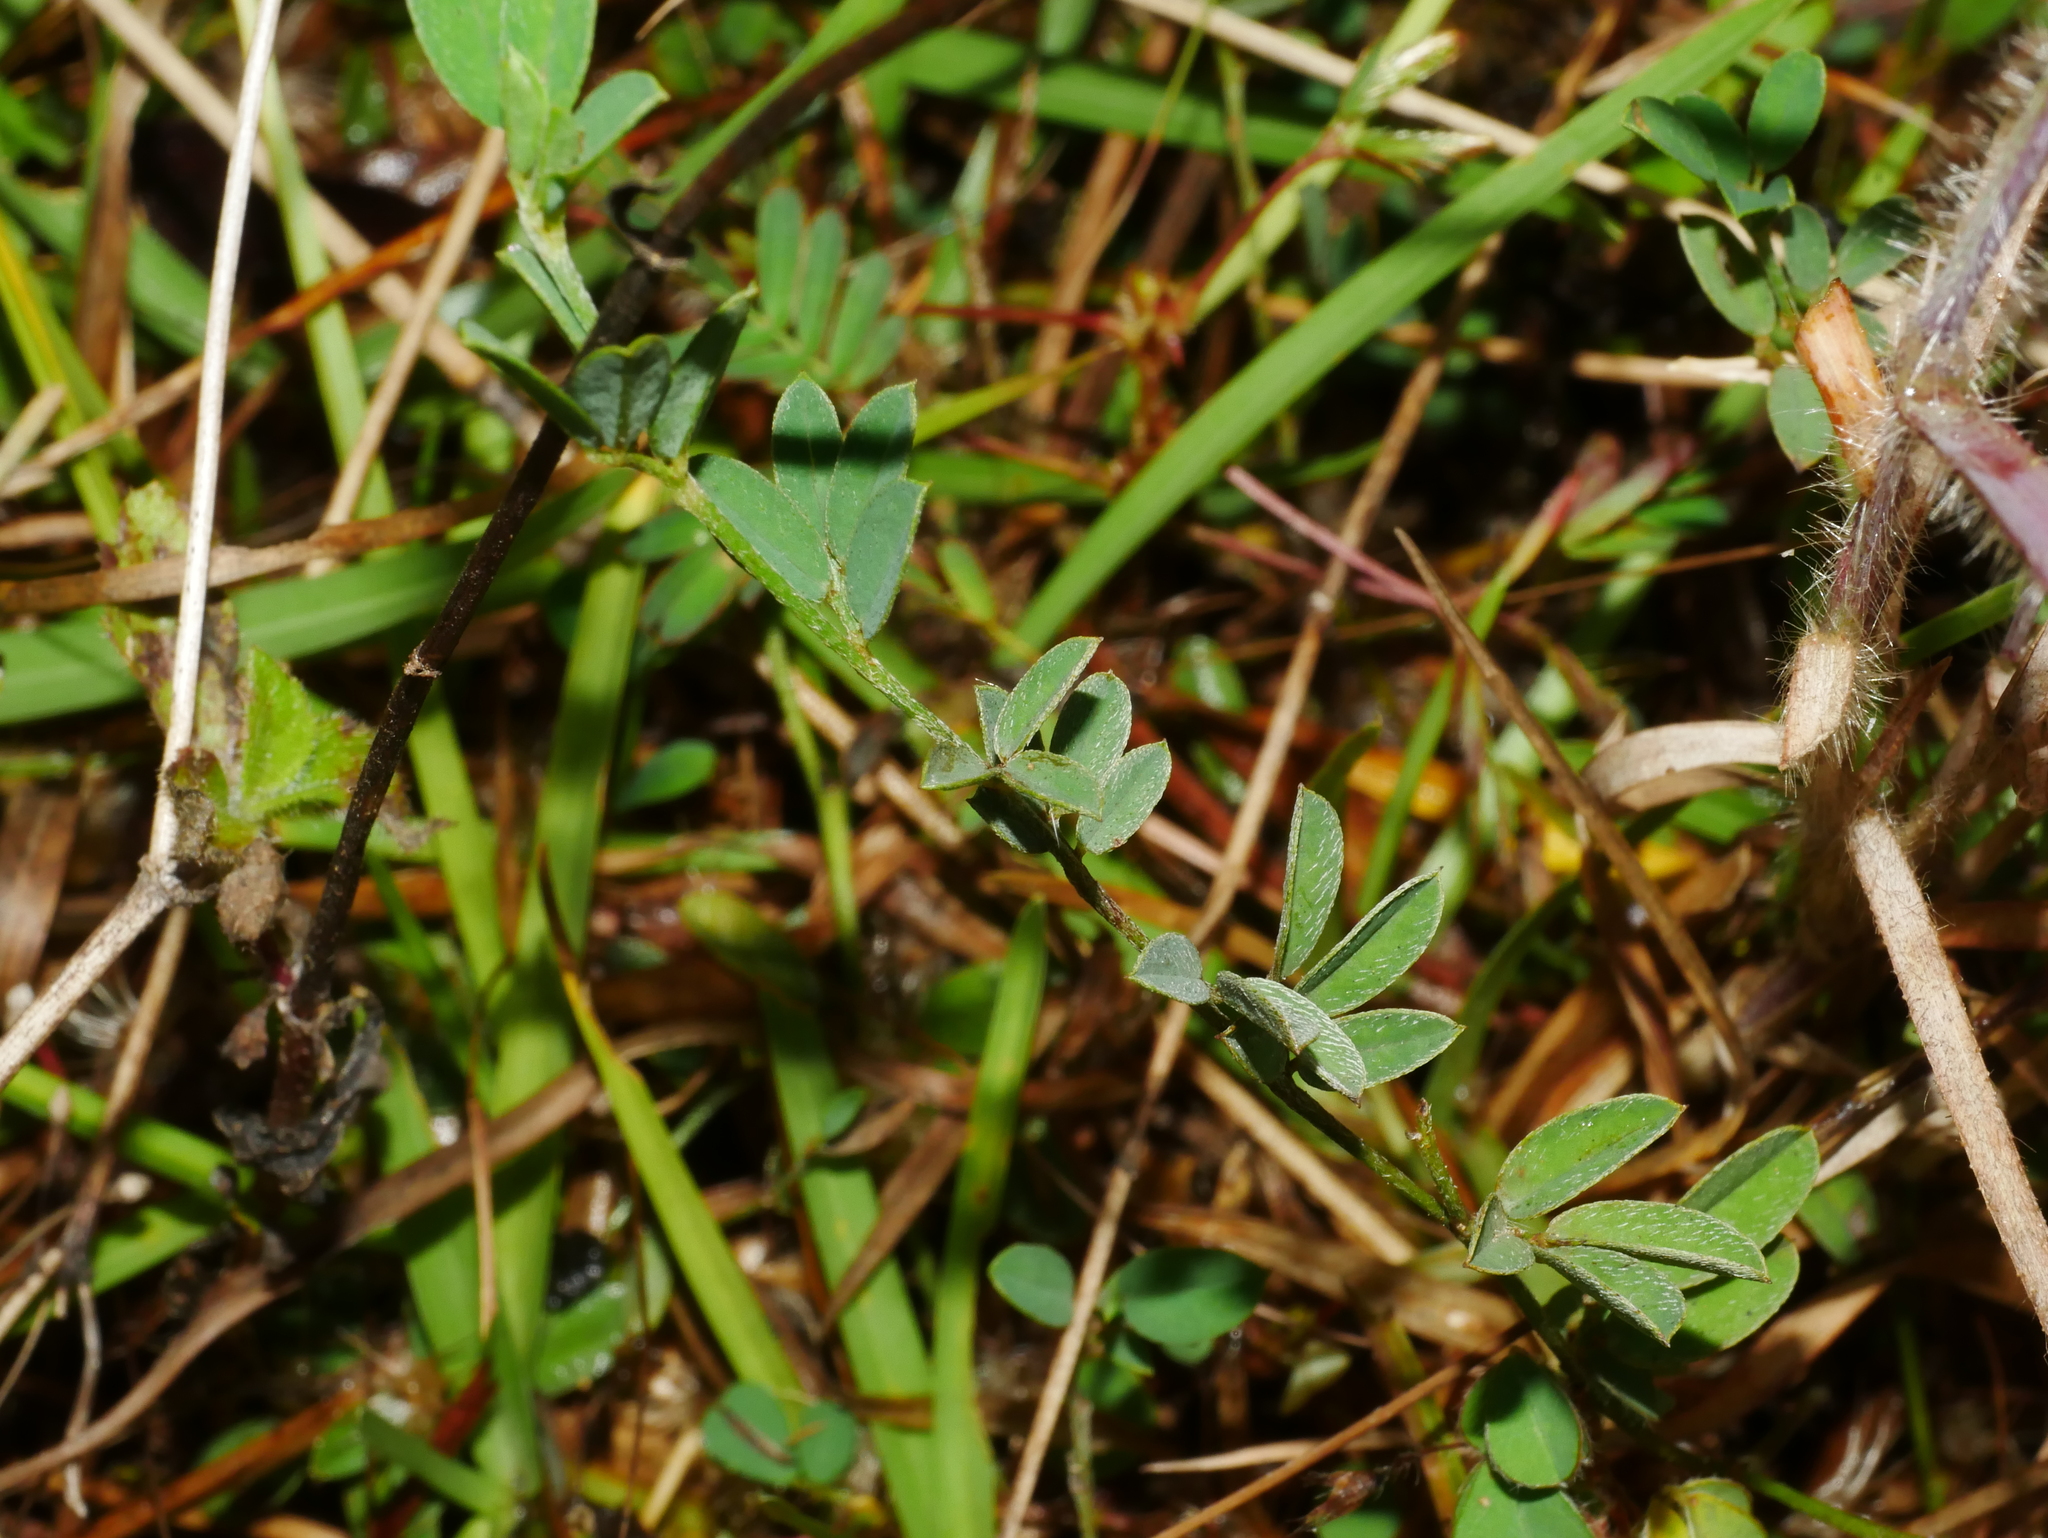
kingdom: Plantae
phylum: Tracheophyta
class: Magnoliopsida
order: Fabales
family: Fabaceae
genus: Indigofera
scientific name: Indigofera taiwaniana
